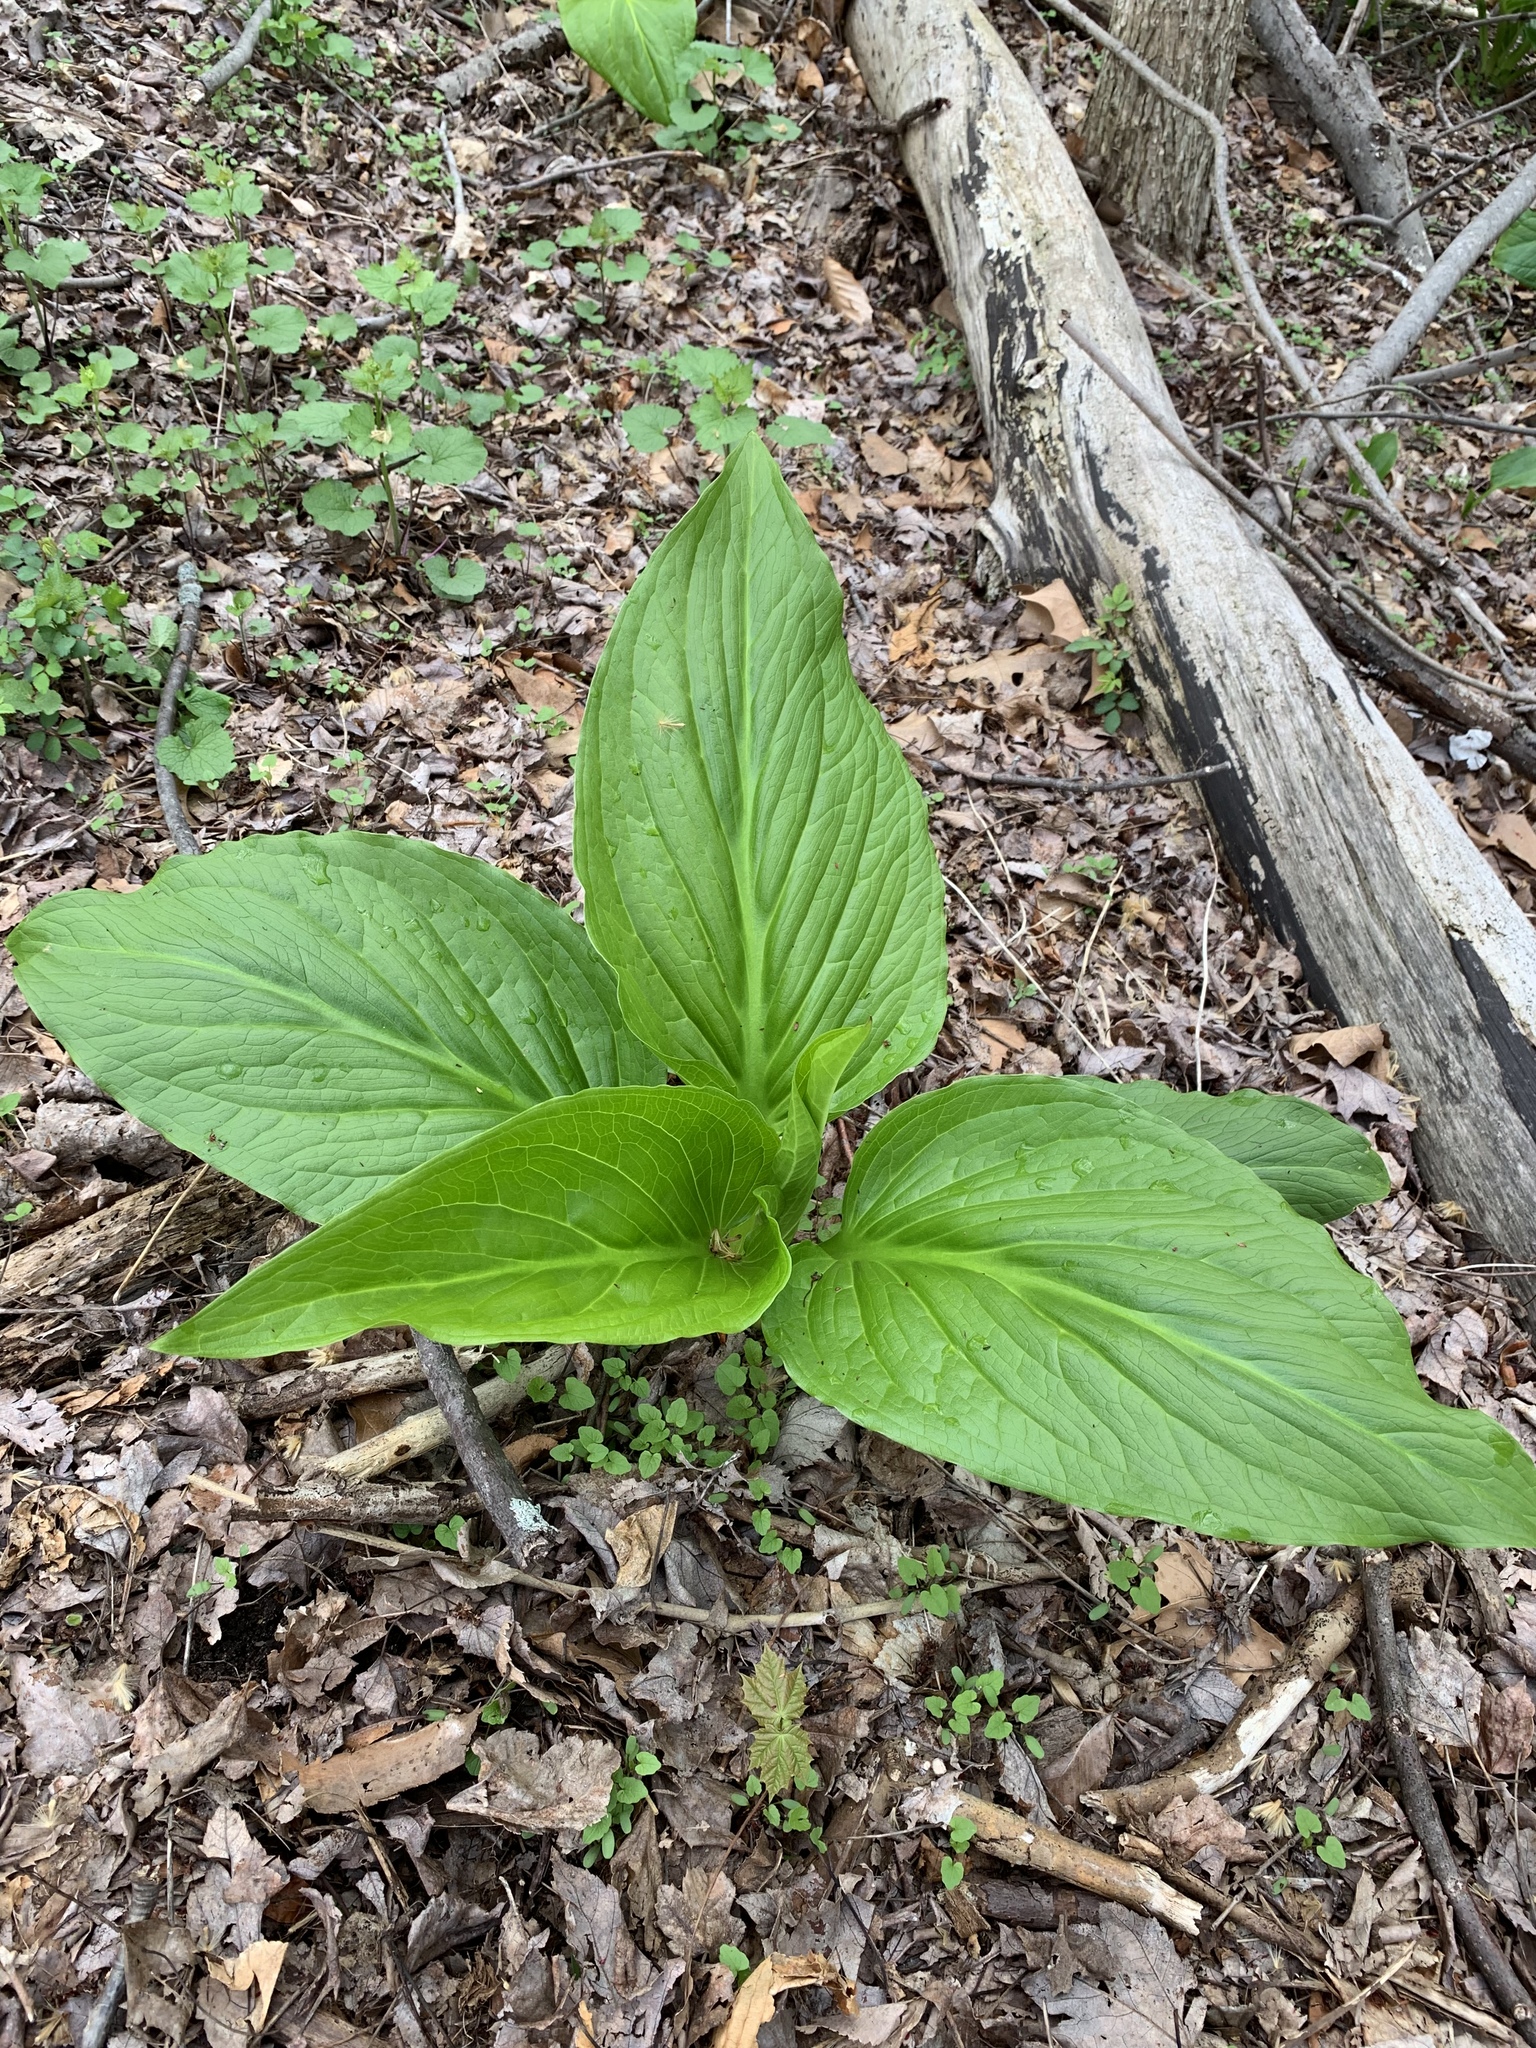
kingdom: Plantae
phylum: Tracheophyta
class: Liliopsida
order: Alismatales
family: Araceae
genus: Symplocarpus
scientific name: Symplocarpus foetidus
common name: Eastern skunk cabbage
